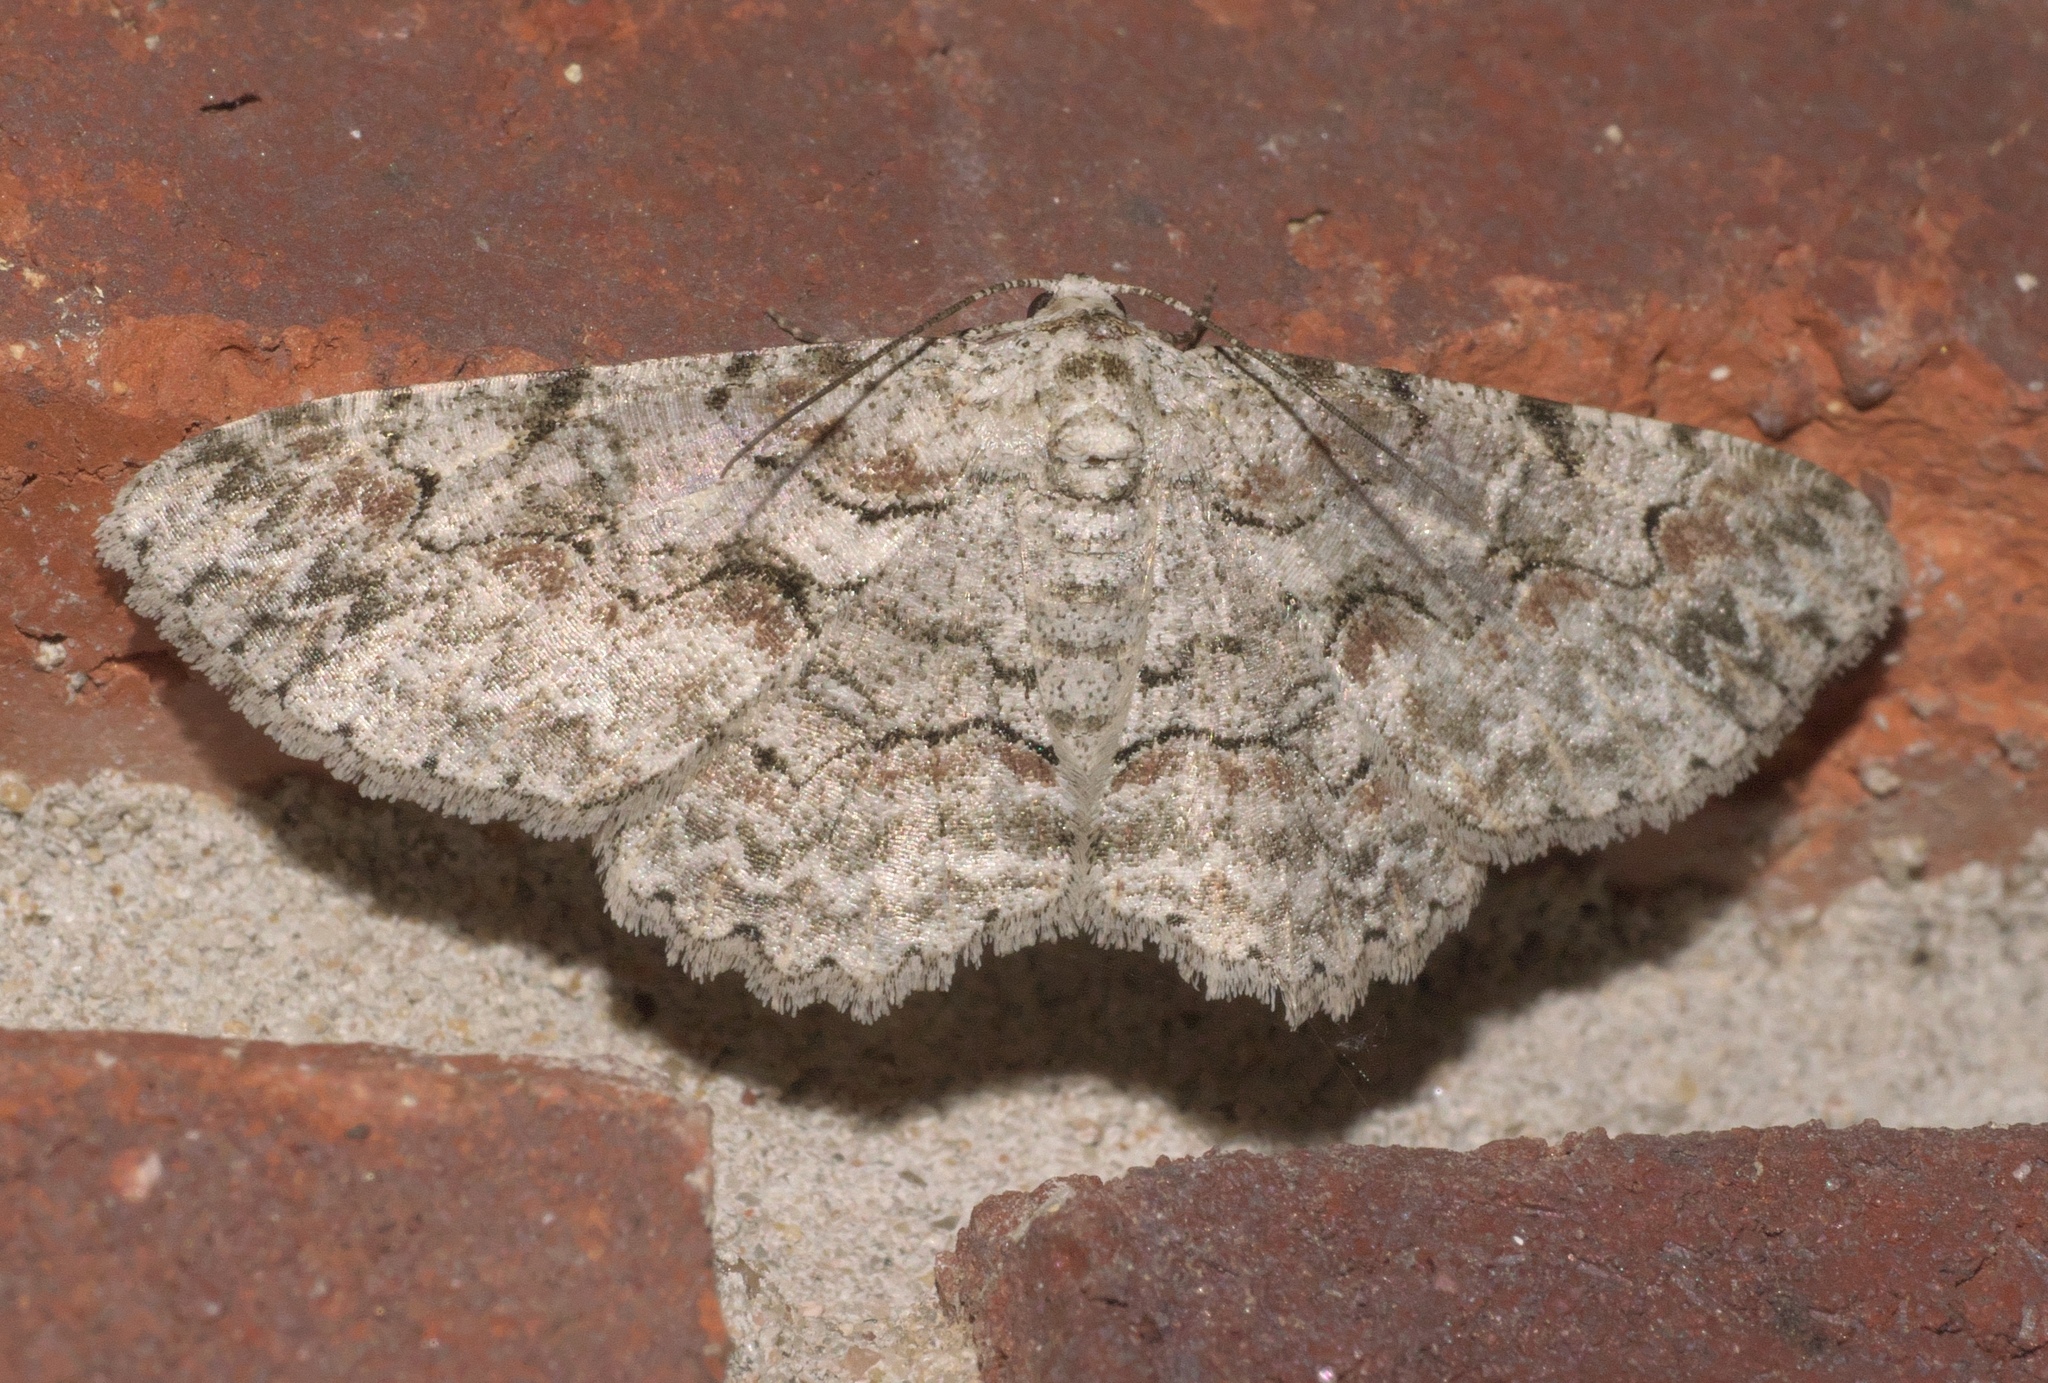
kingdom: Animalia
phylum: Arthropoda
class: Insecta
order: Lepidoptera
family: Geometridae
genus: Iridopsis
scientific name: Iridopsis defectaria
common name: Brown-shaded gray
